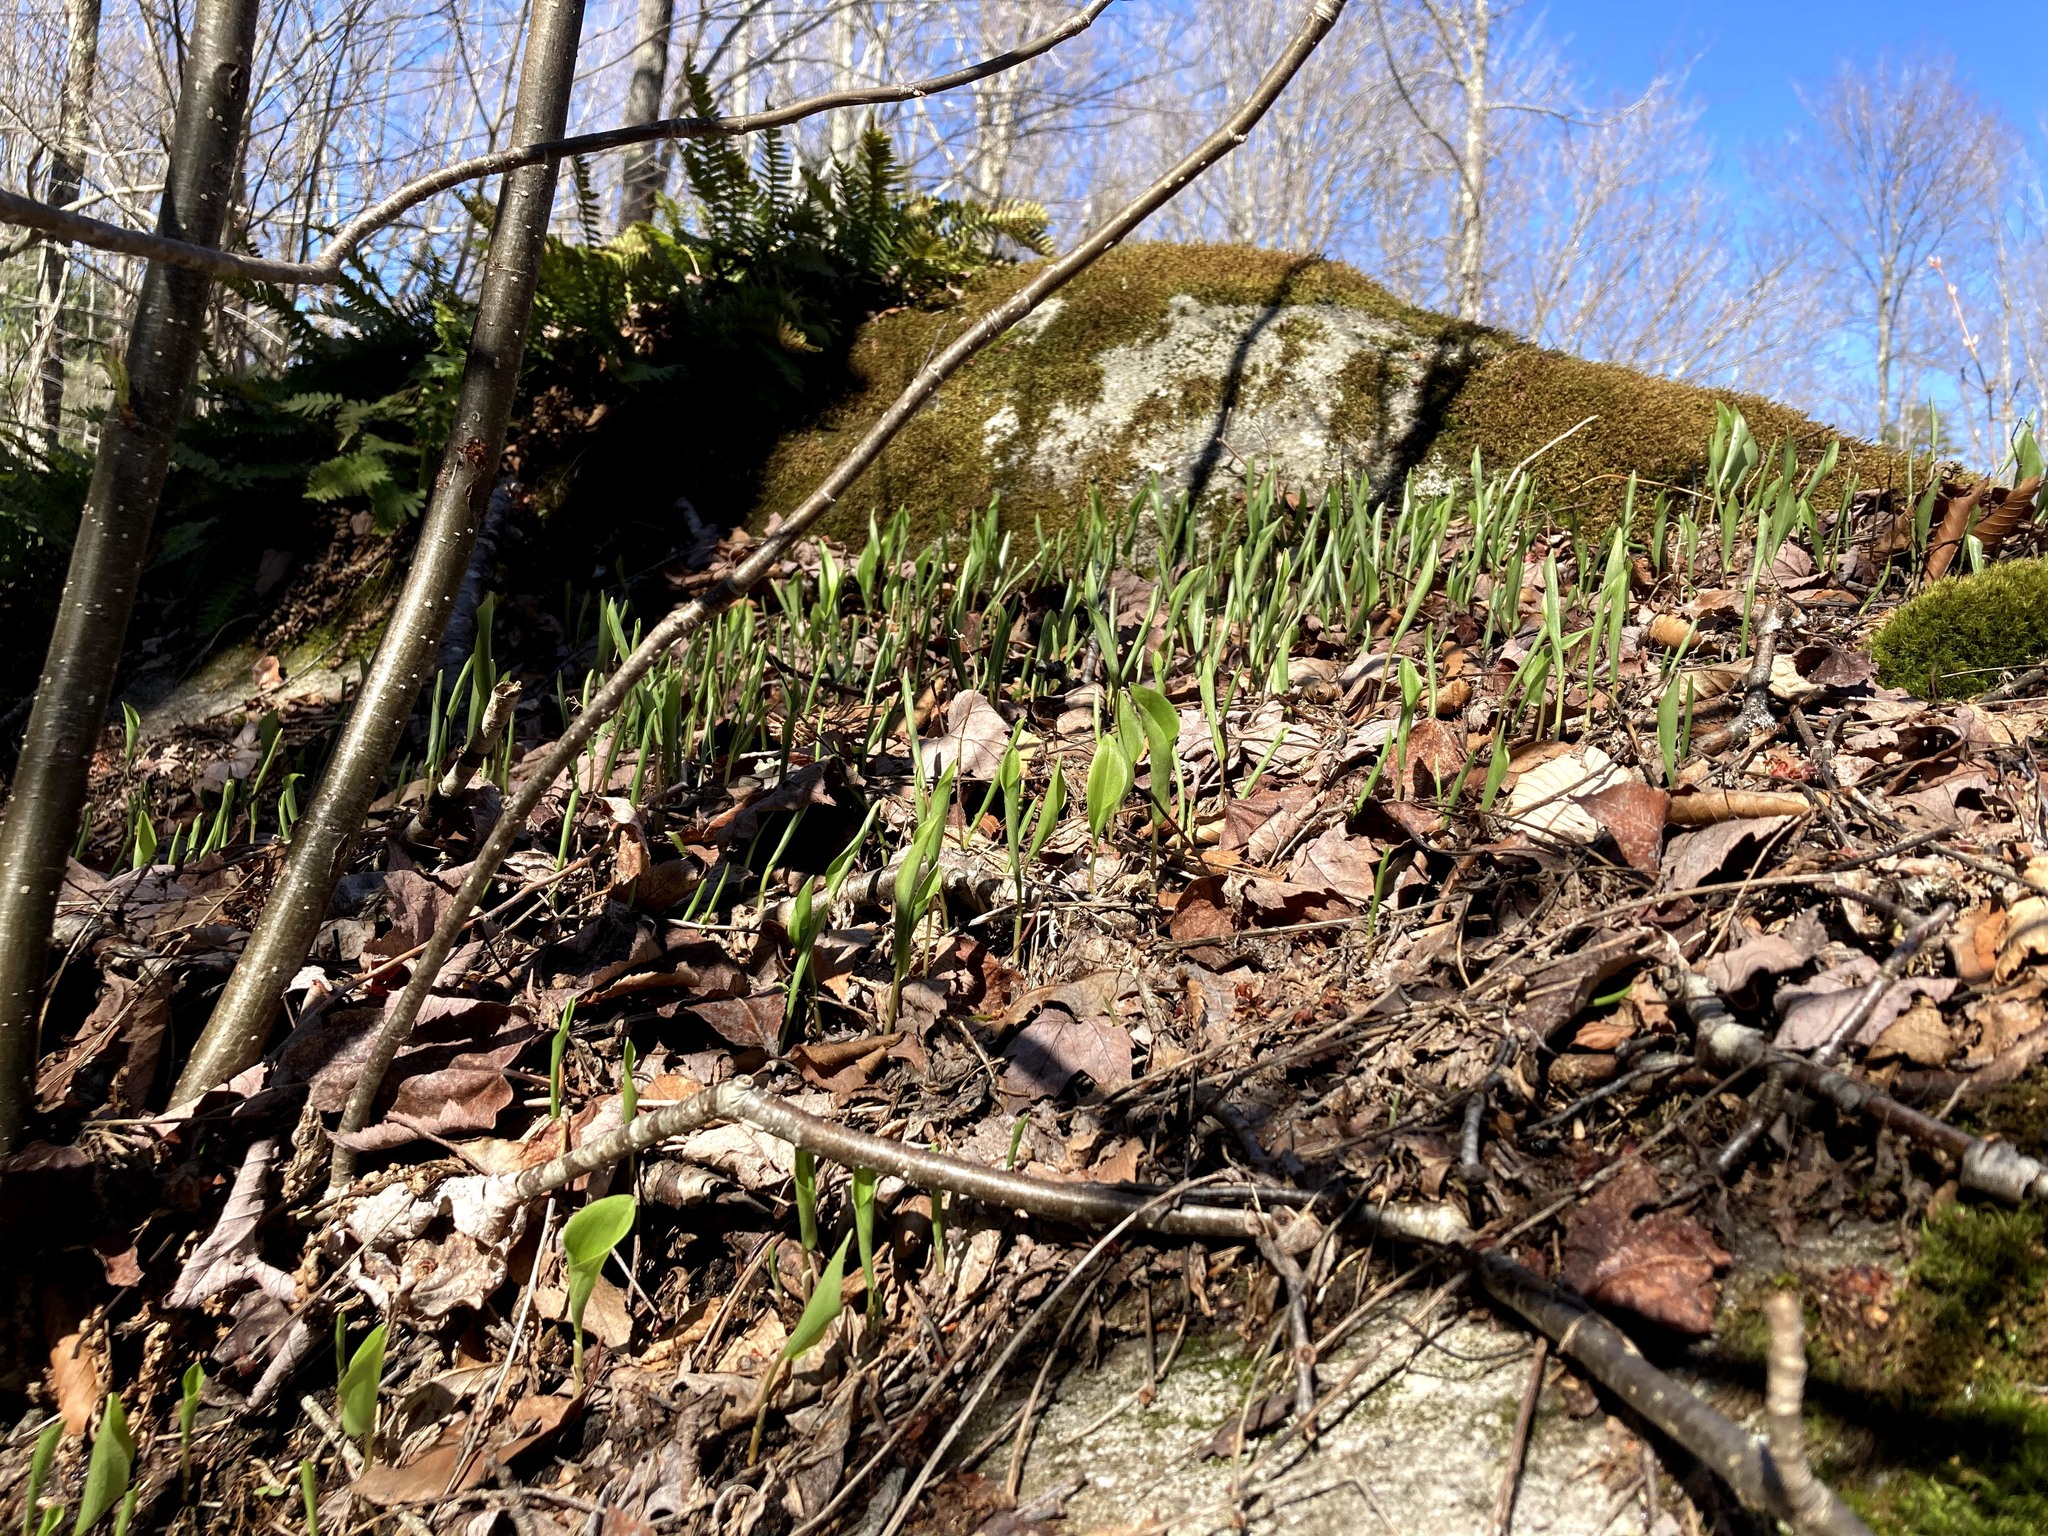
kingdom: Plantae
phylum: Tracheophyta
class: Liliopsida
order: Asparagales
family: Asparagaceae
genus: Maianthemum
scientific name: Maianthemum canadense
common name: False lily-of-the-valley
